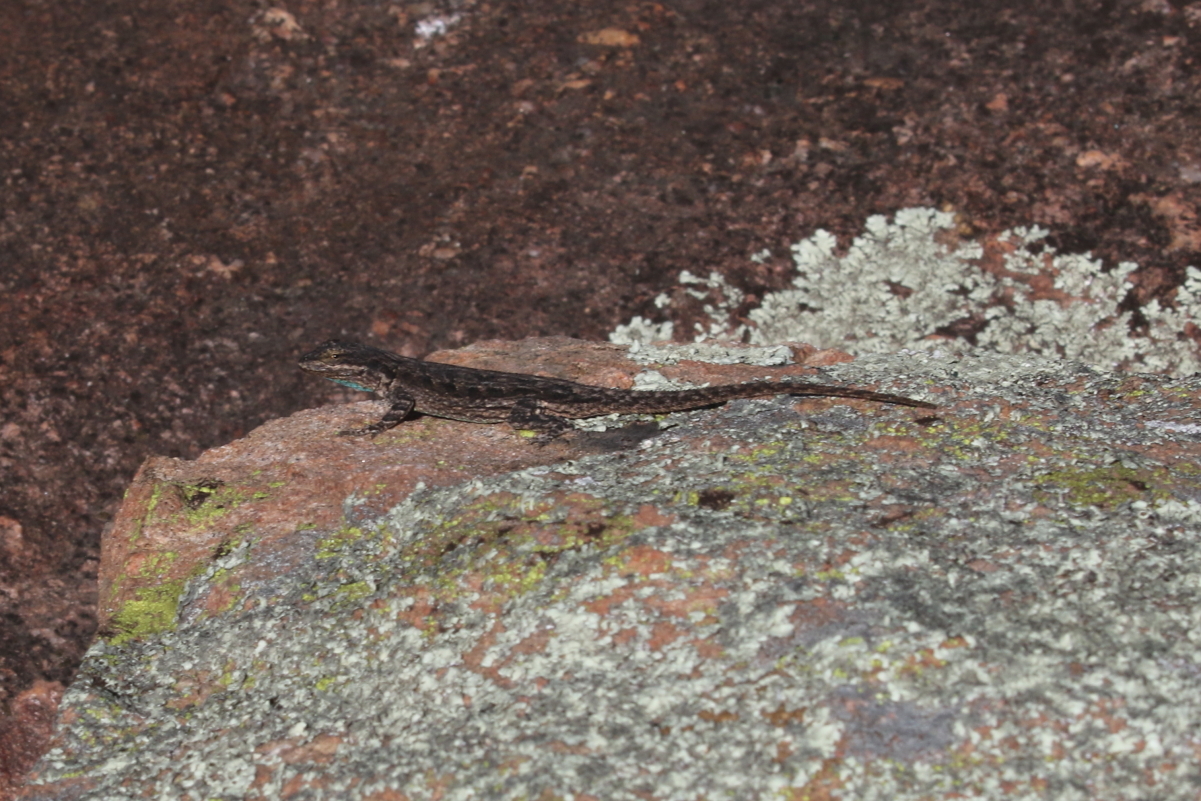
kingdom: Animalia
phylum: Chordata
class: Squamata
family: Phrynosomatidae
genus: Urosaurus
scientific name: Urosaurus ornatus
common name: Ornate tree lizard
